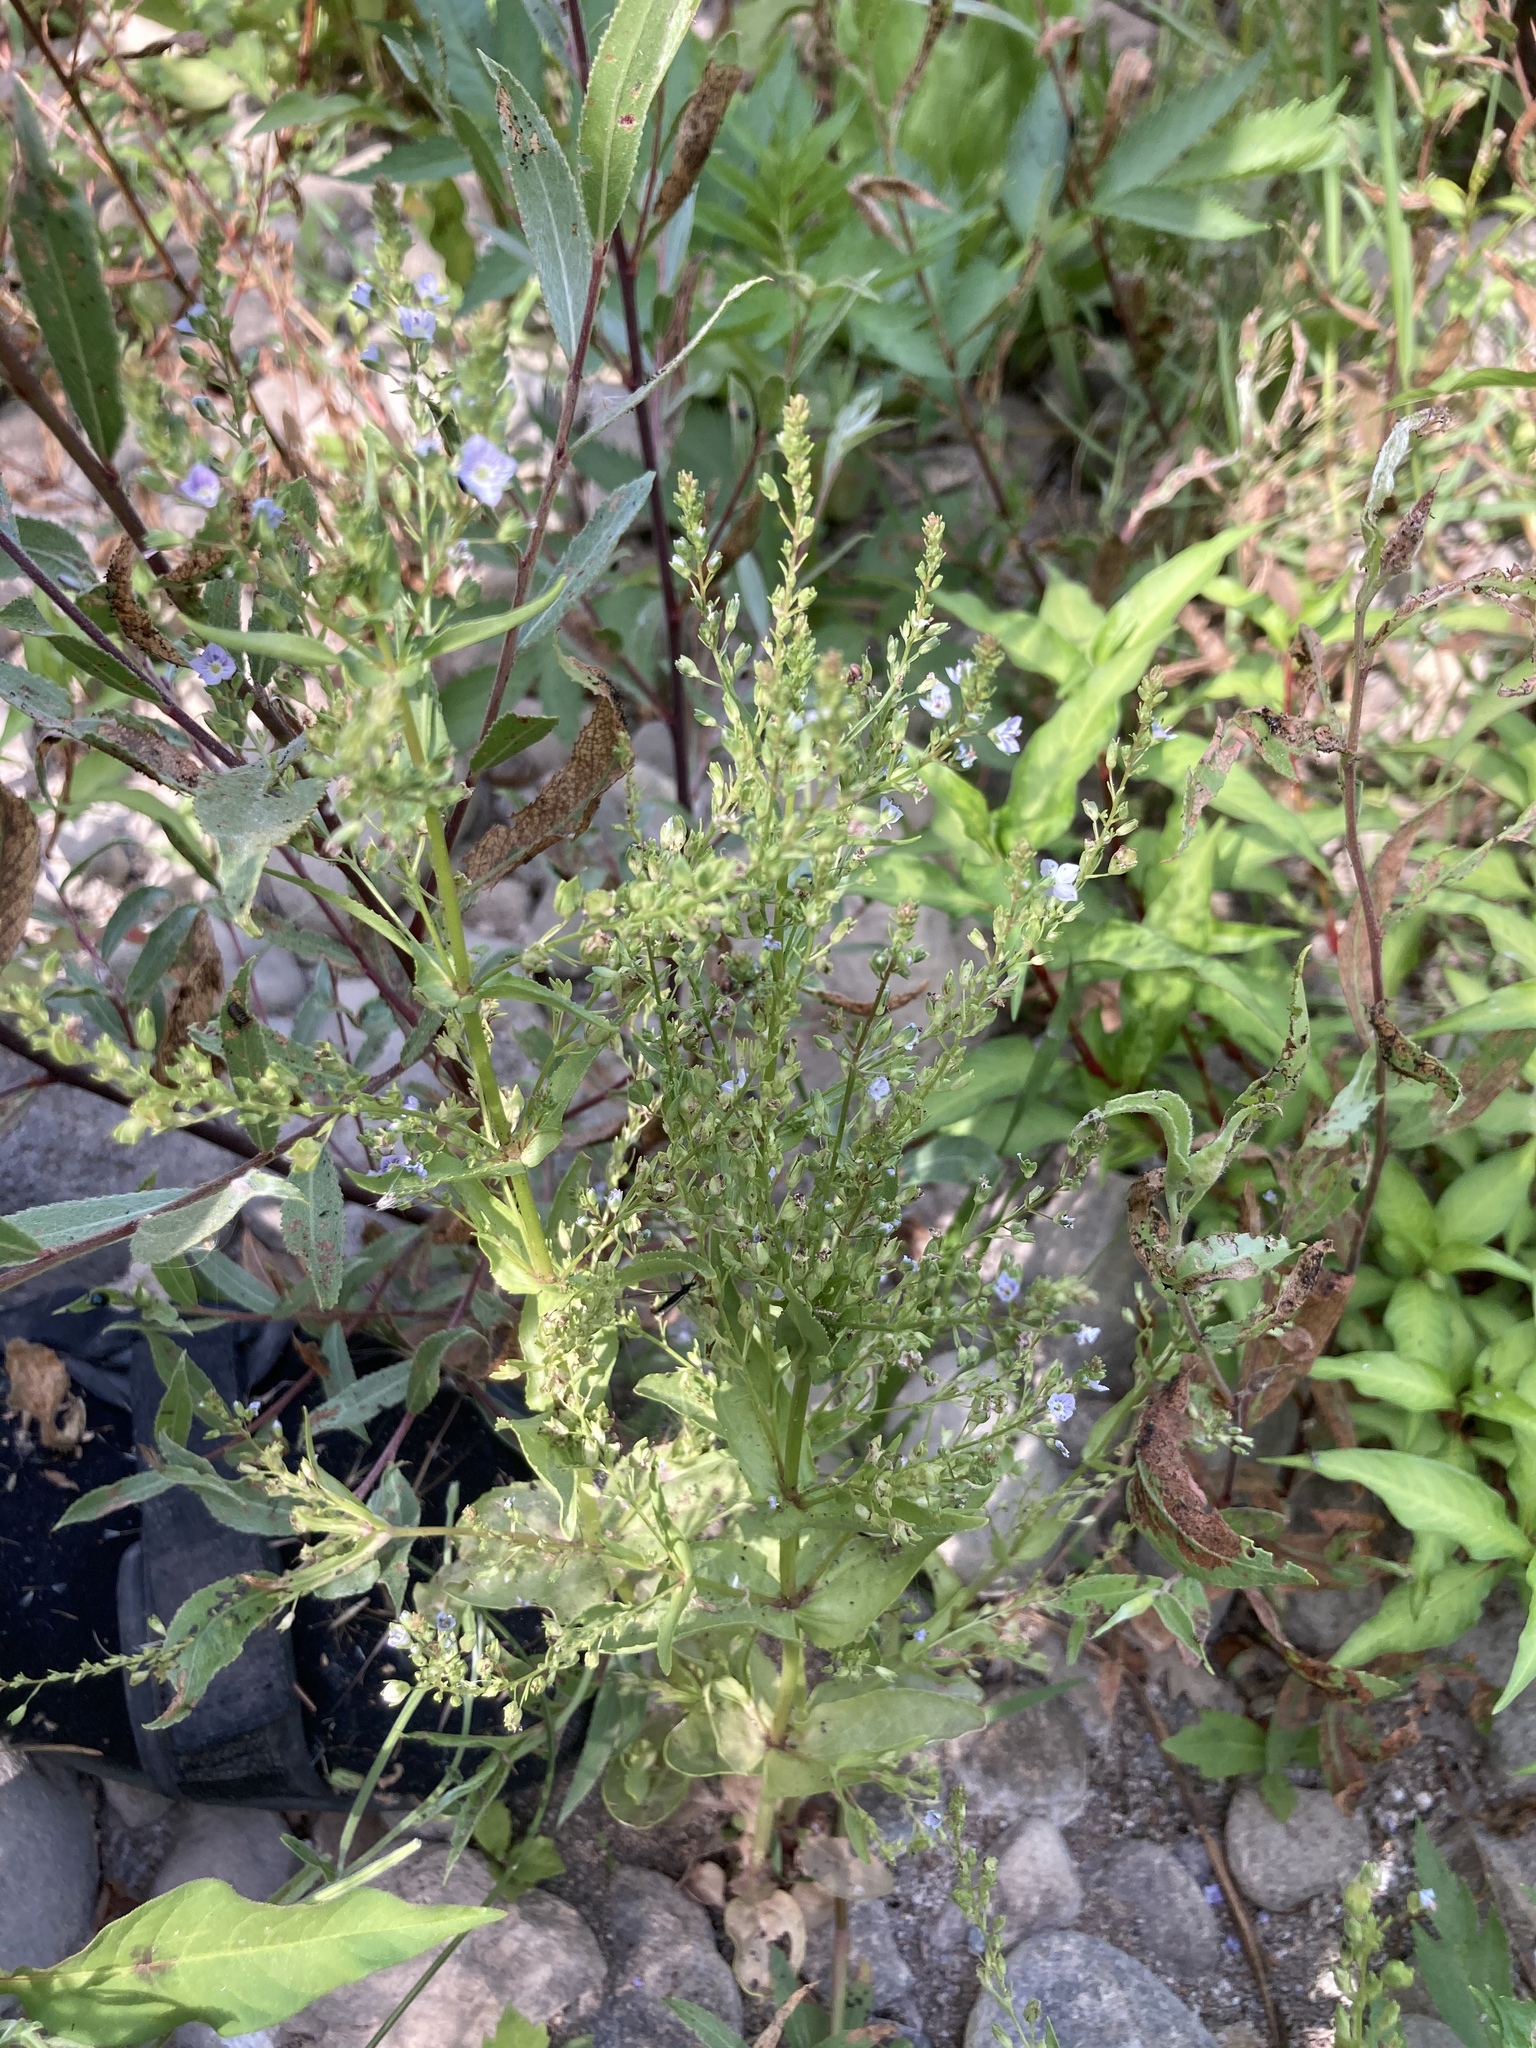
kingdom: Plantae
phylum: Tracheophyta
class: Magnoliopsida
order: Lamiales
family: Plantaginaceae
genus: Veronica
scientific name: Veronica anagallis-aquatica
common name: Water speedwell
